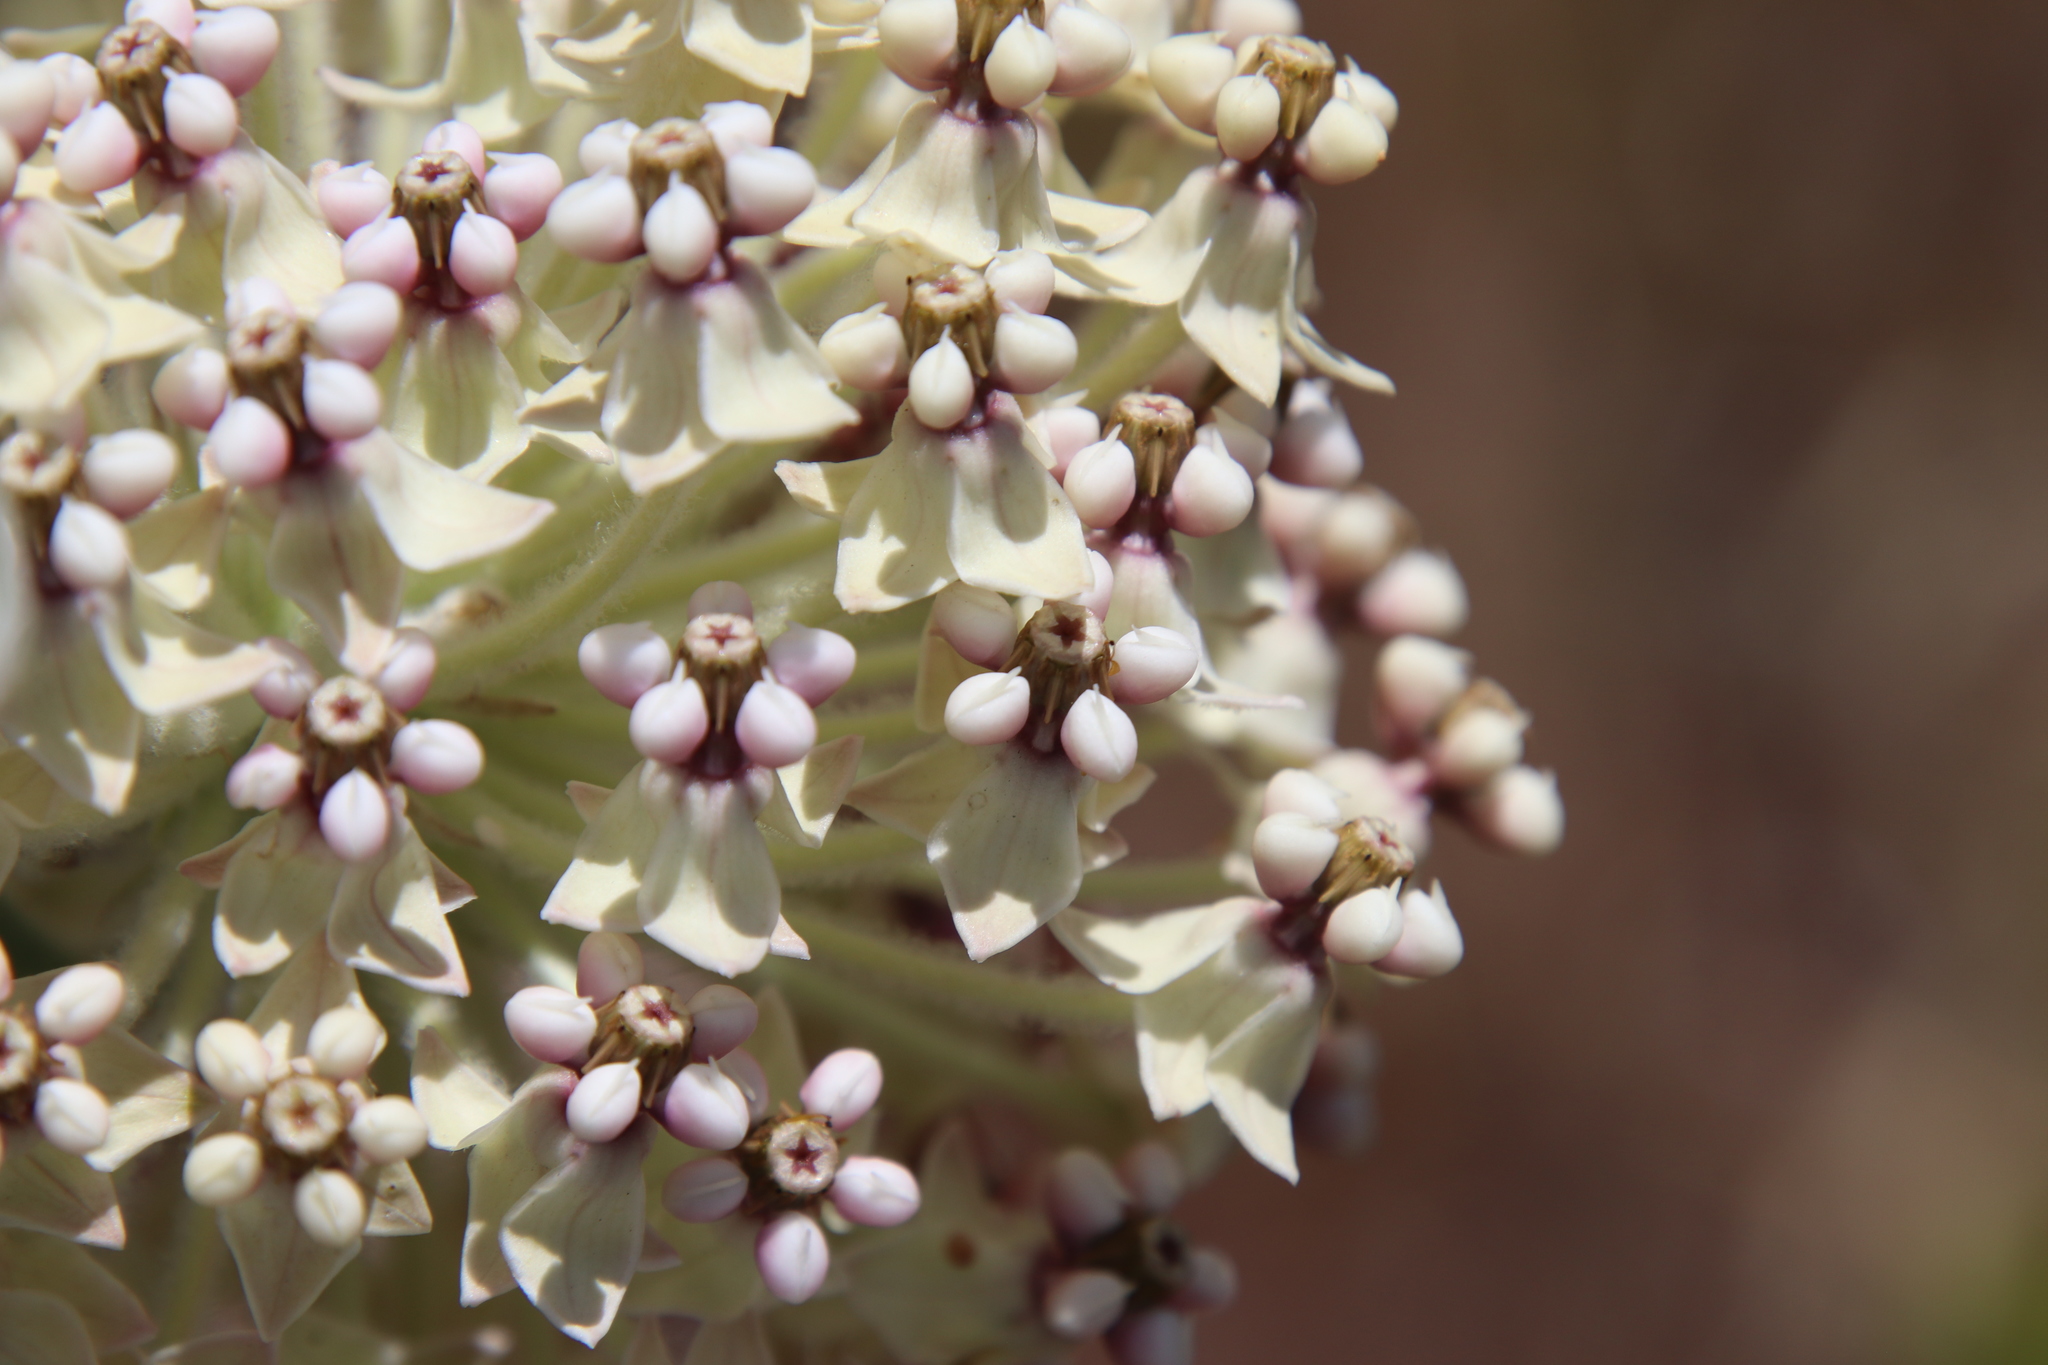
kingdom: Plantae
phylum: Tracheophyta
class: Magnoliopsida
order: Gentianales
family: Apocynaceae
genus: Asclepias
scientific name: Asclepias eriocarpa
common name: Indian milkweed
